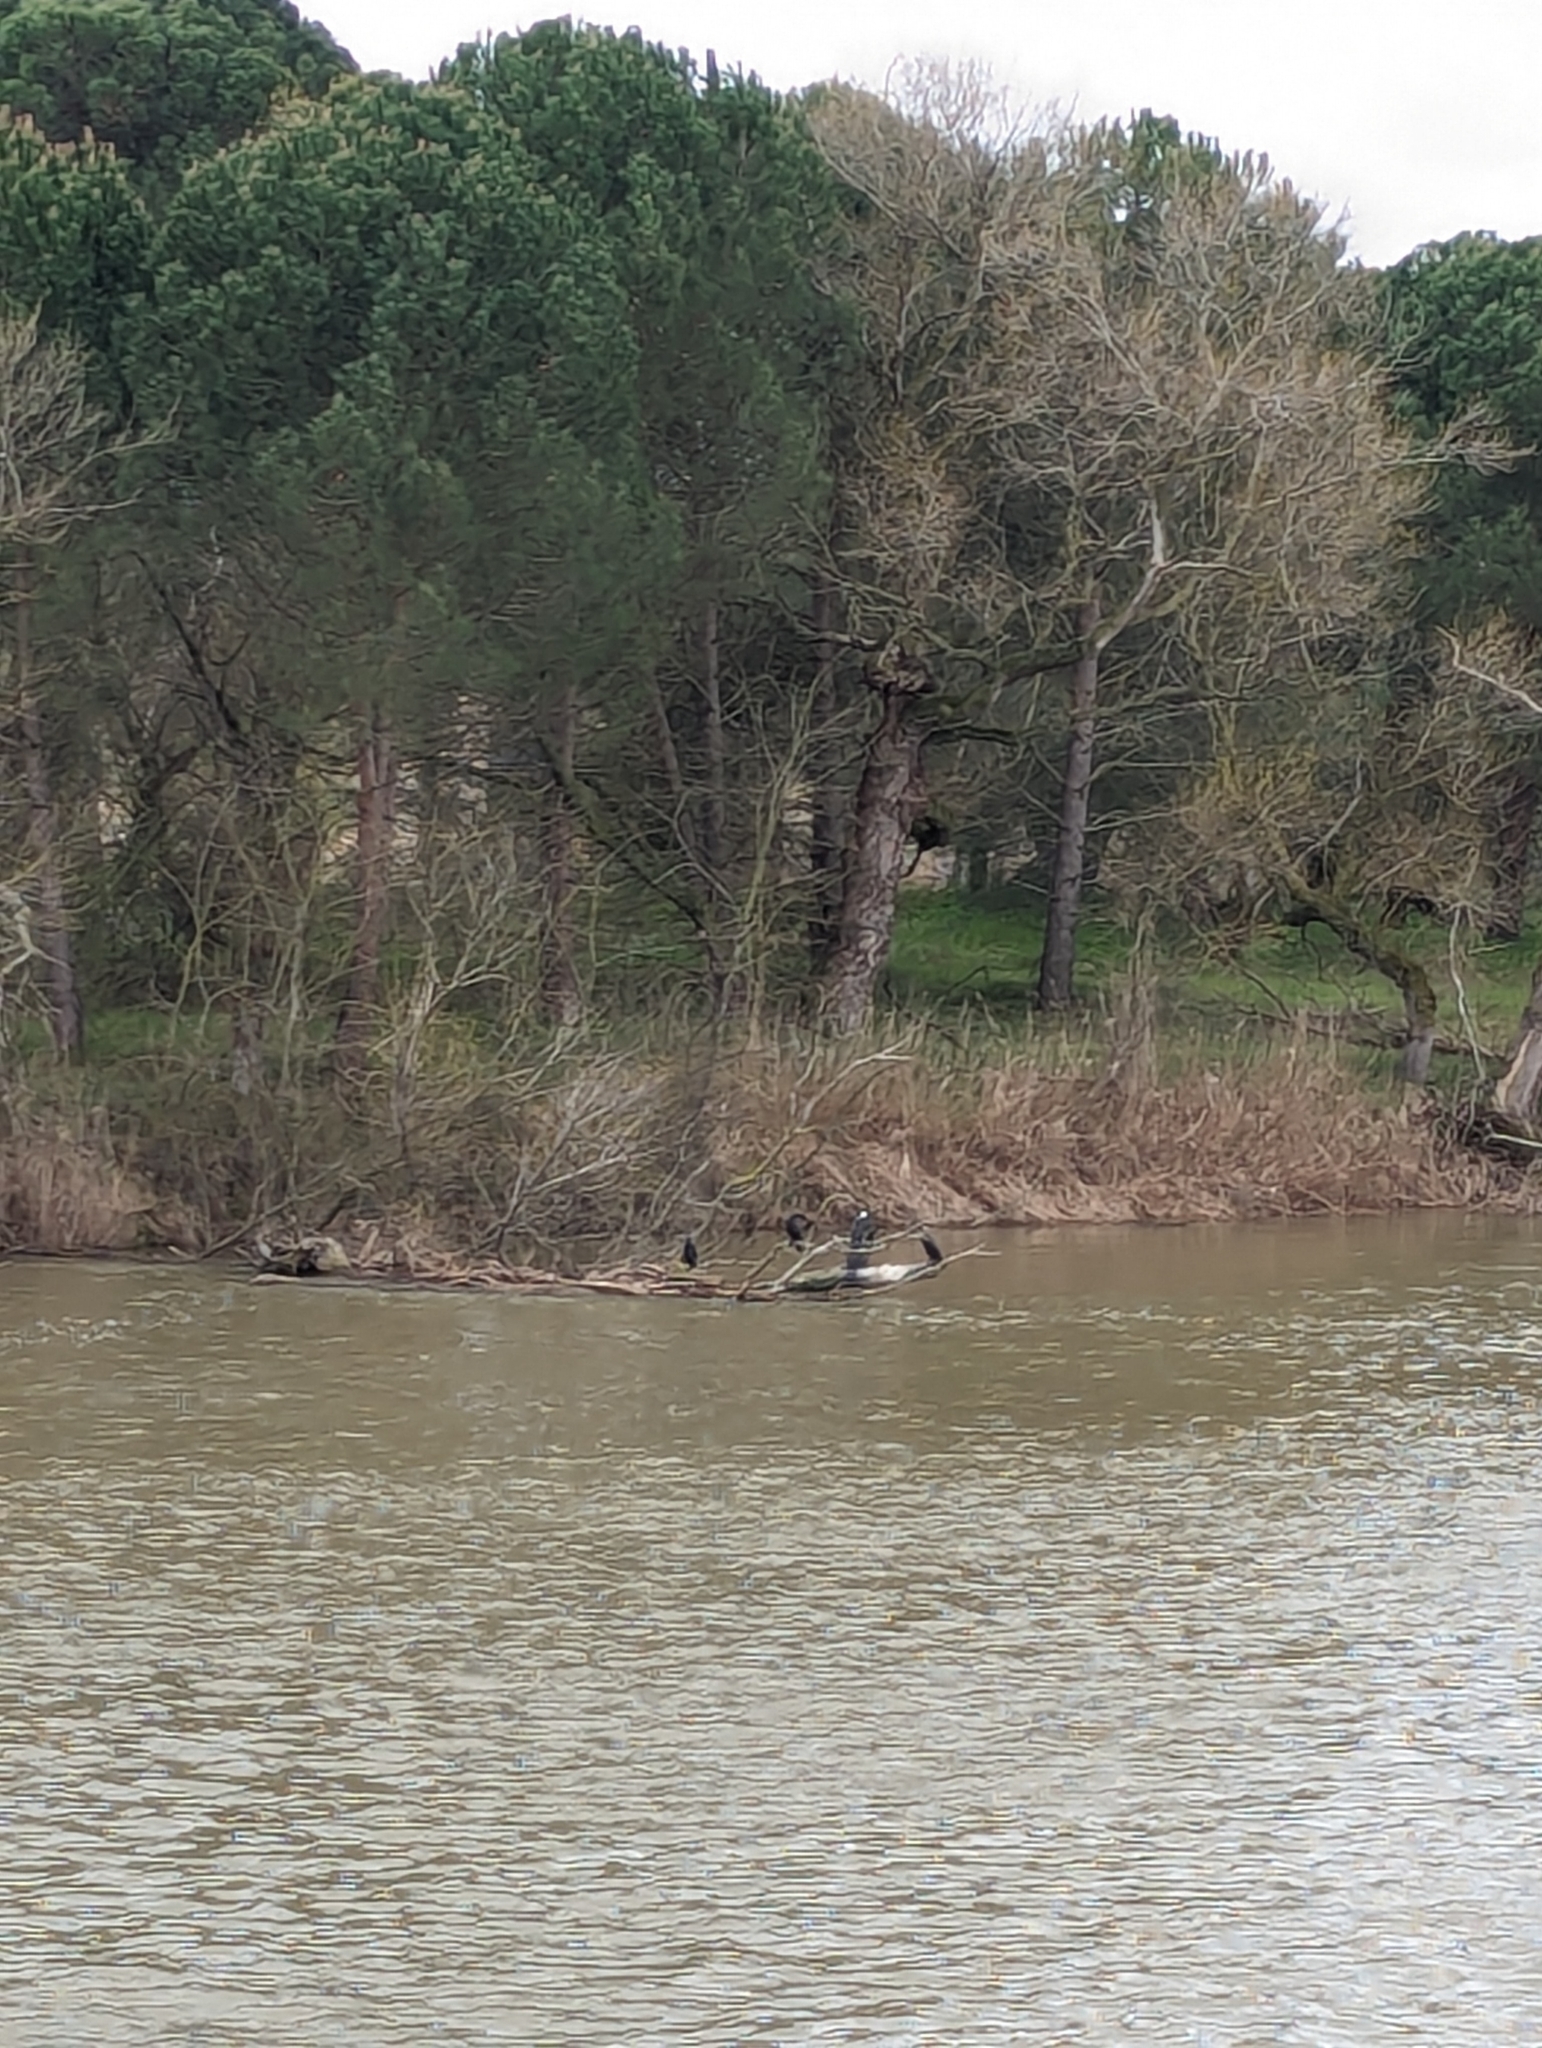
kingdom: Animalia
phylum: Chordata
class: Aves
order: Suliformes
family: Phalacrocoracidae
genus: Phalacrocorax
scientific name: Phalacrocorax carbo
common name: Great cormorant
